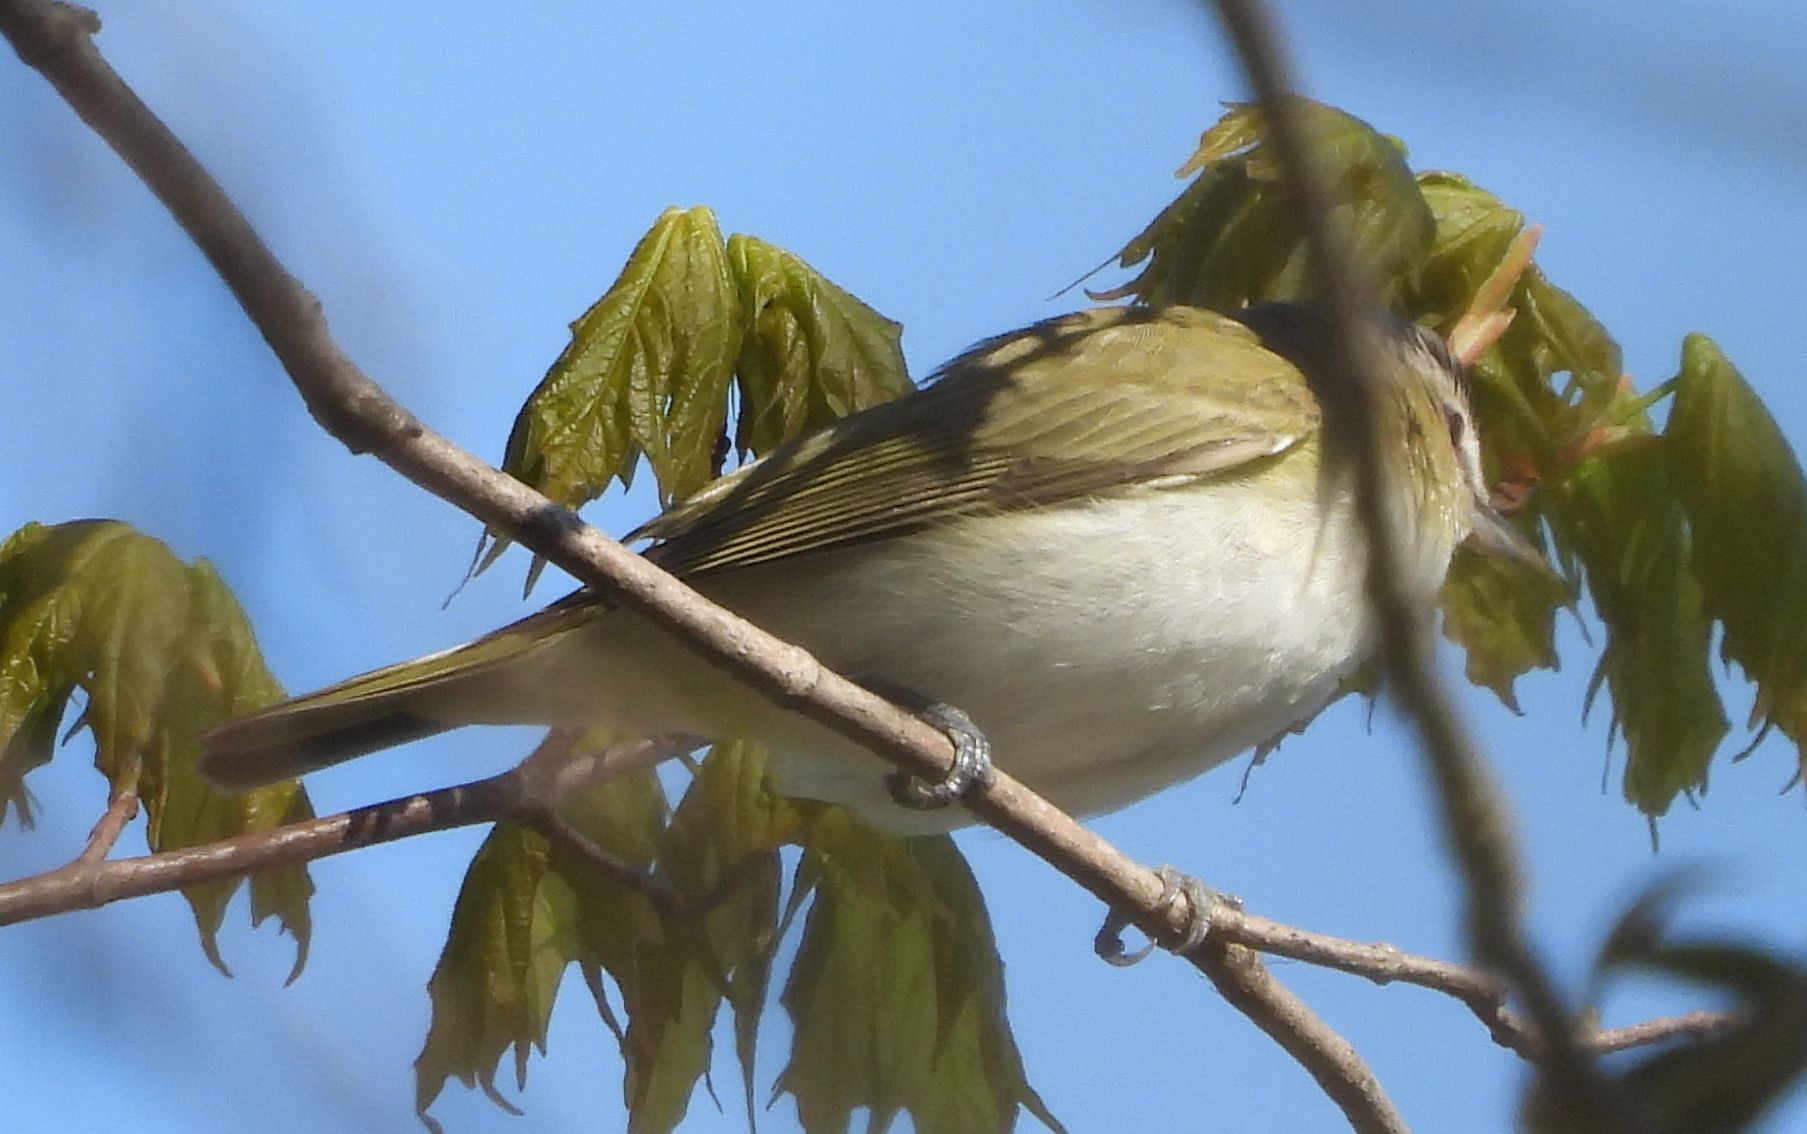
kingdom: Animalia
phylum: Chordata
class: Aves
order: Passeriformes
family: Vireonidae
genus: Vireo
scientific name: Vireo olivaceus
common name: Red-eyed vireo
